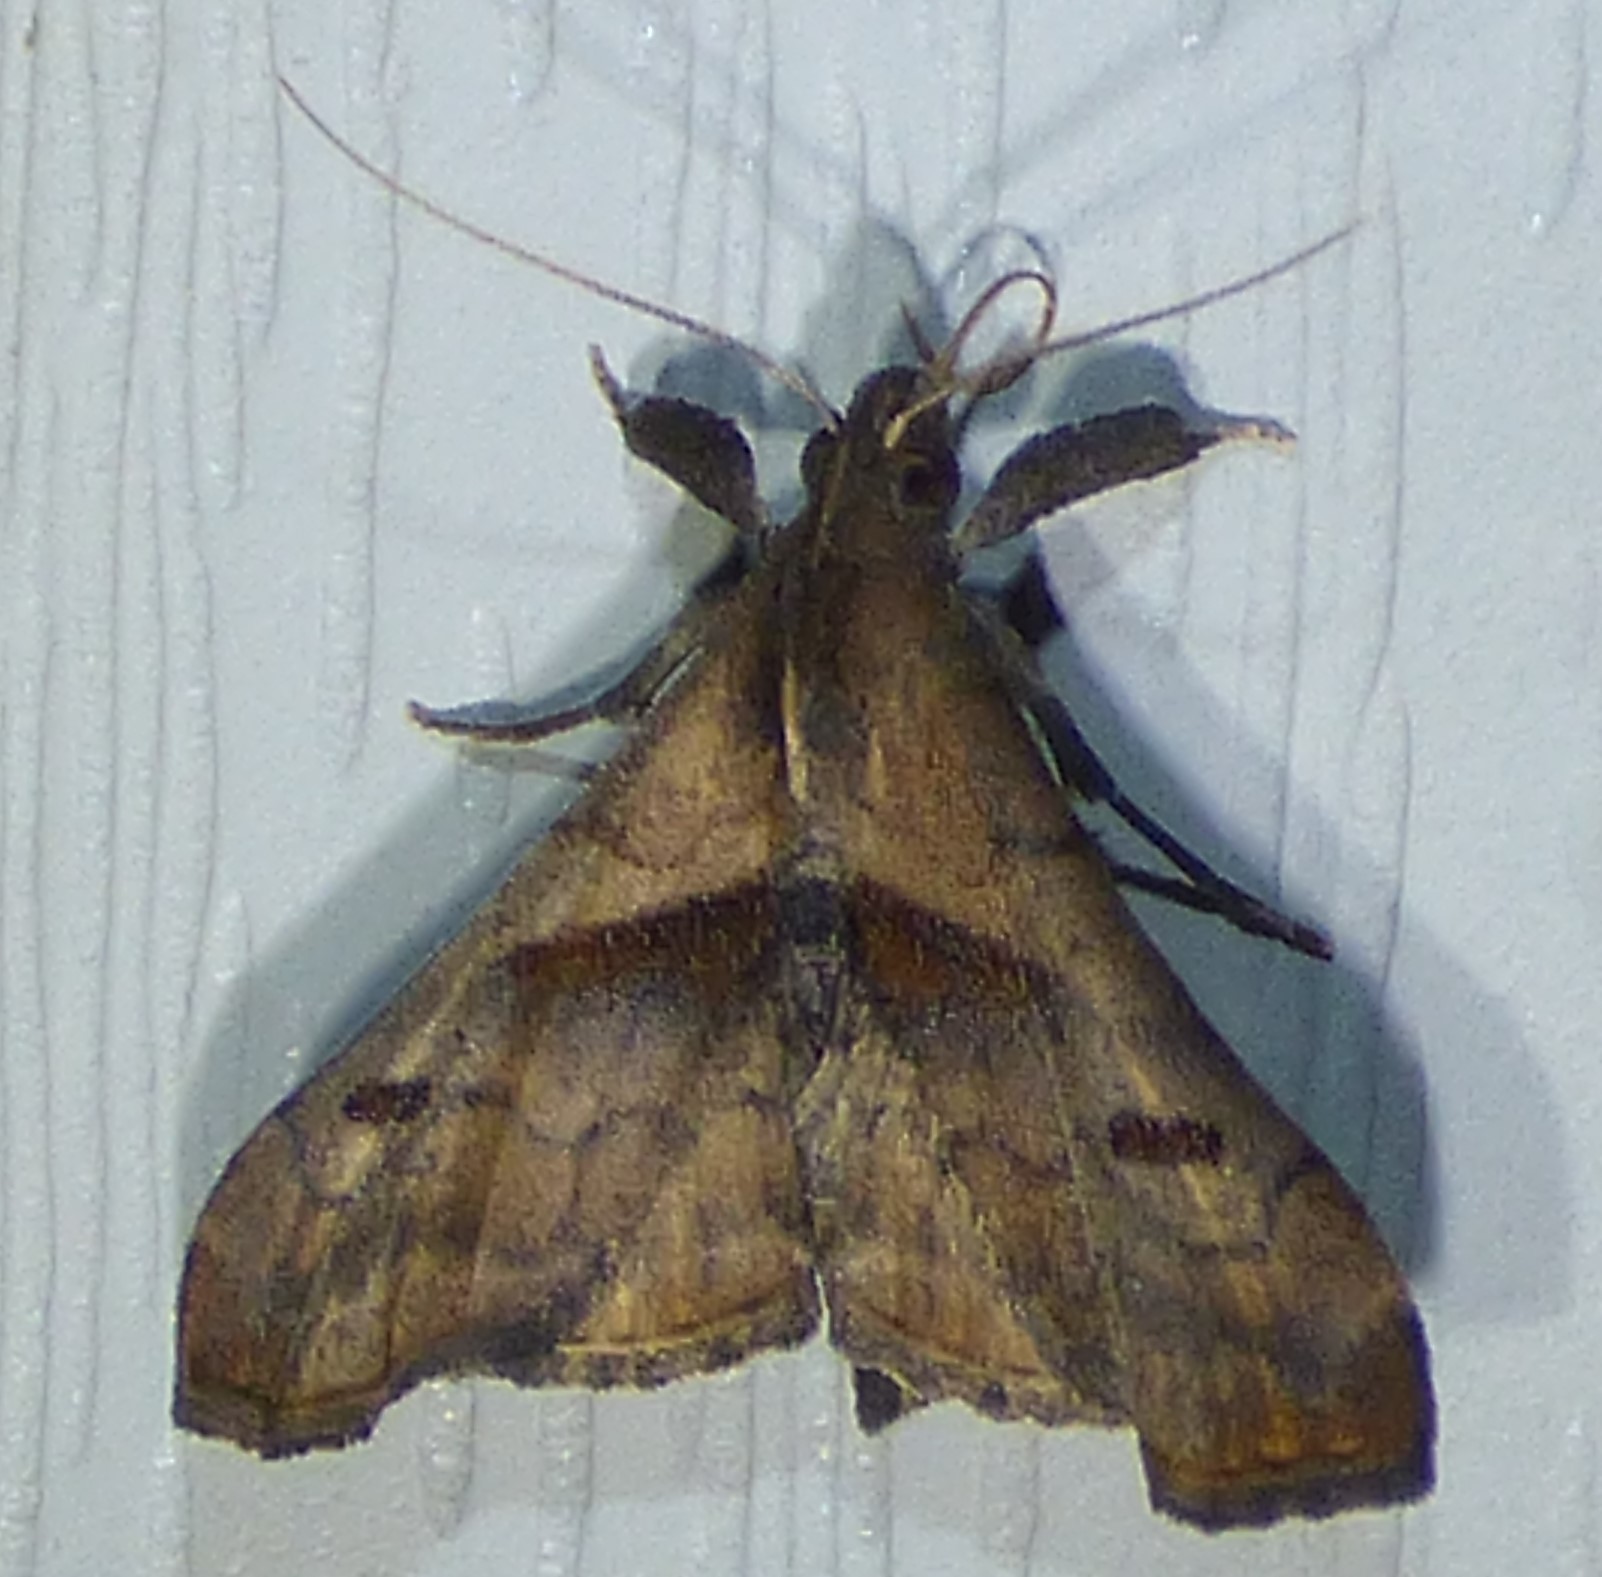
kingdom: Animalia
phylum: Arthropoda
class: Insecta
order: Lepidoptera
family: Erebidae
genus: Palthis
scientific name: Palthis angulalis
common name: Dark-spotted palthis moth
